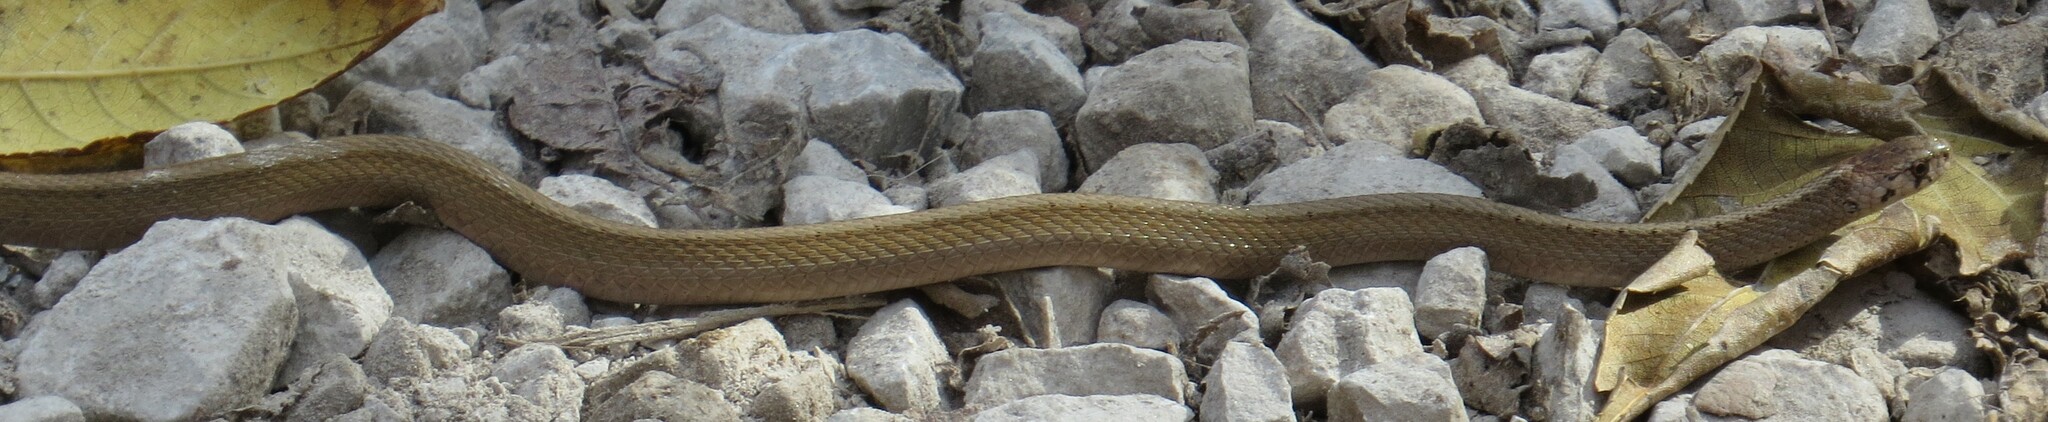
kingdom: Animalia
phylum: Chordata
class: Squamata
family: Colubridae
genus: Storeria
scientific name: Storeria dekayi
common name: (dekay’s) brown snake
